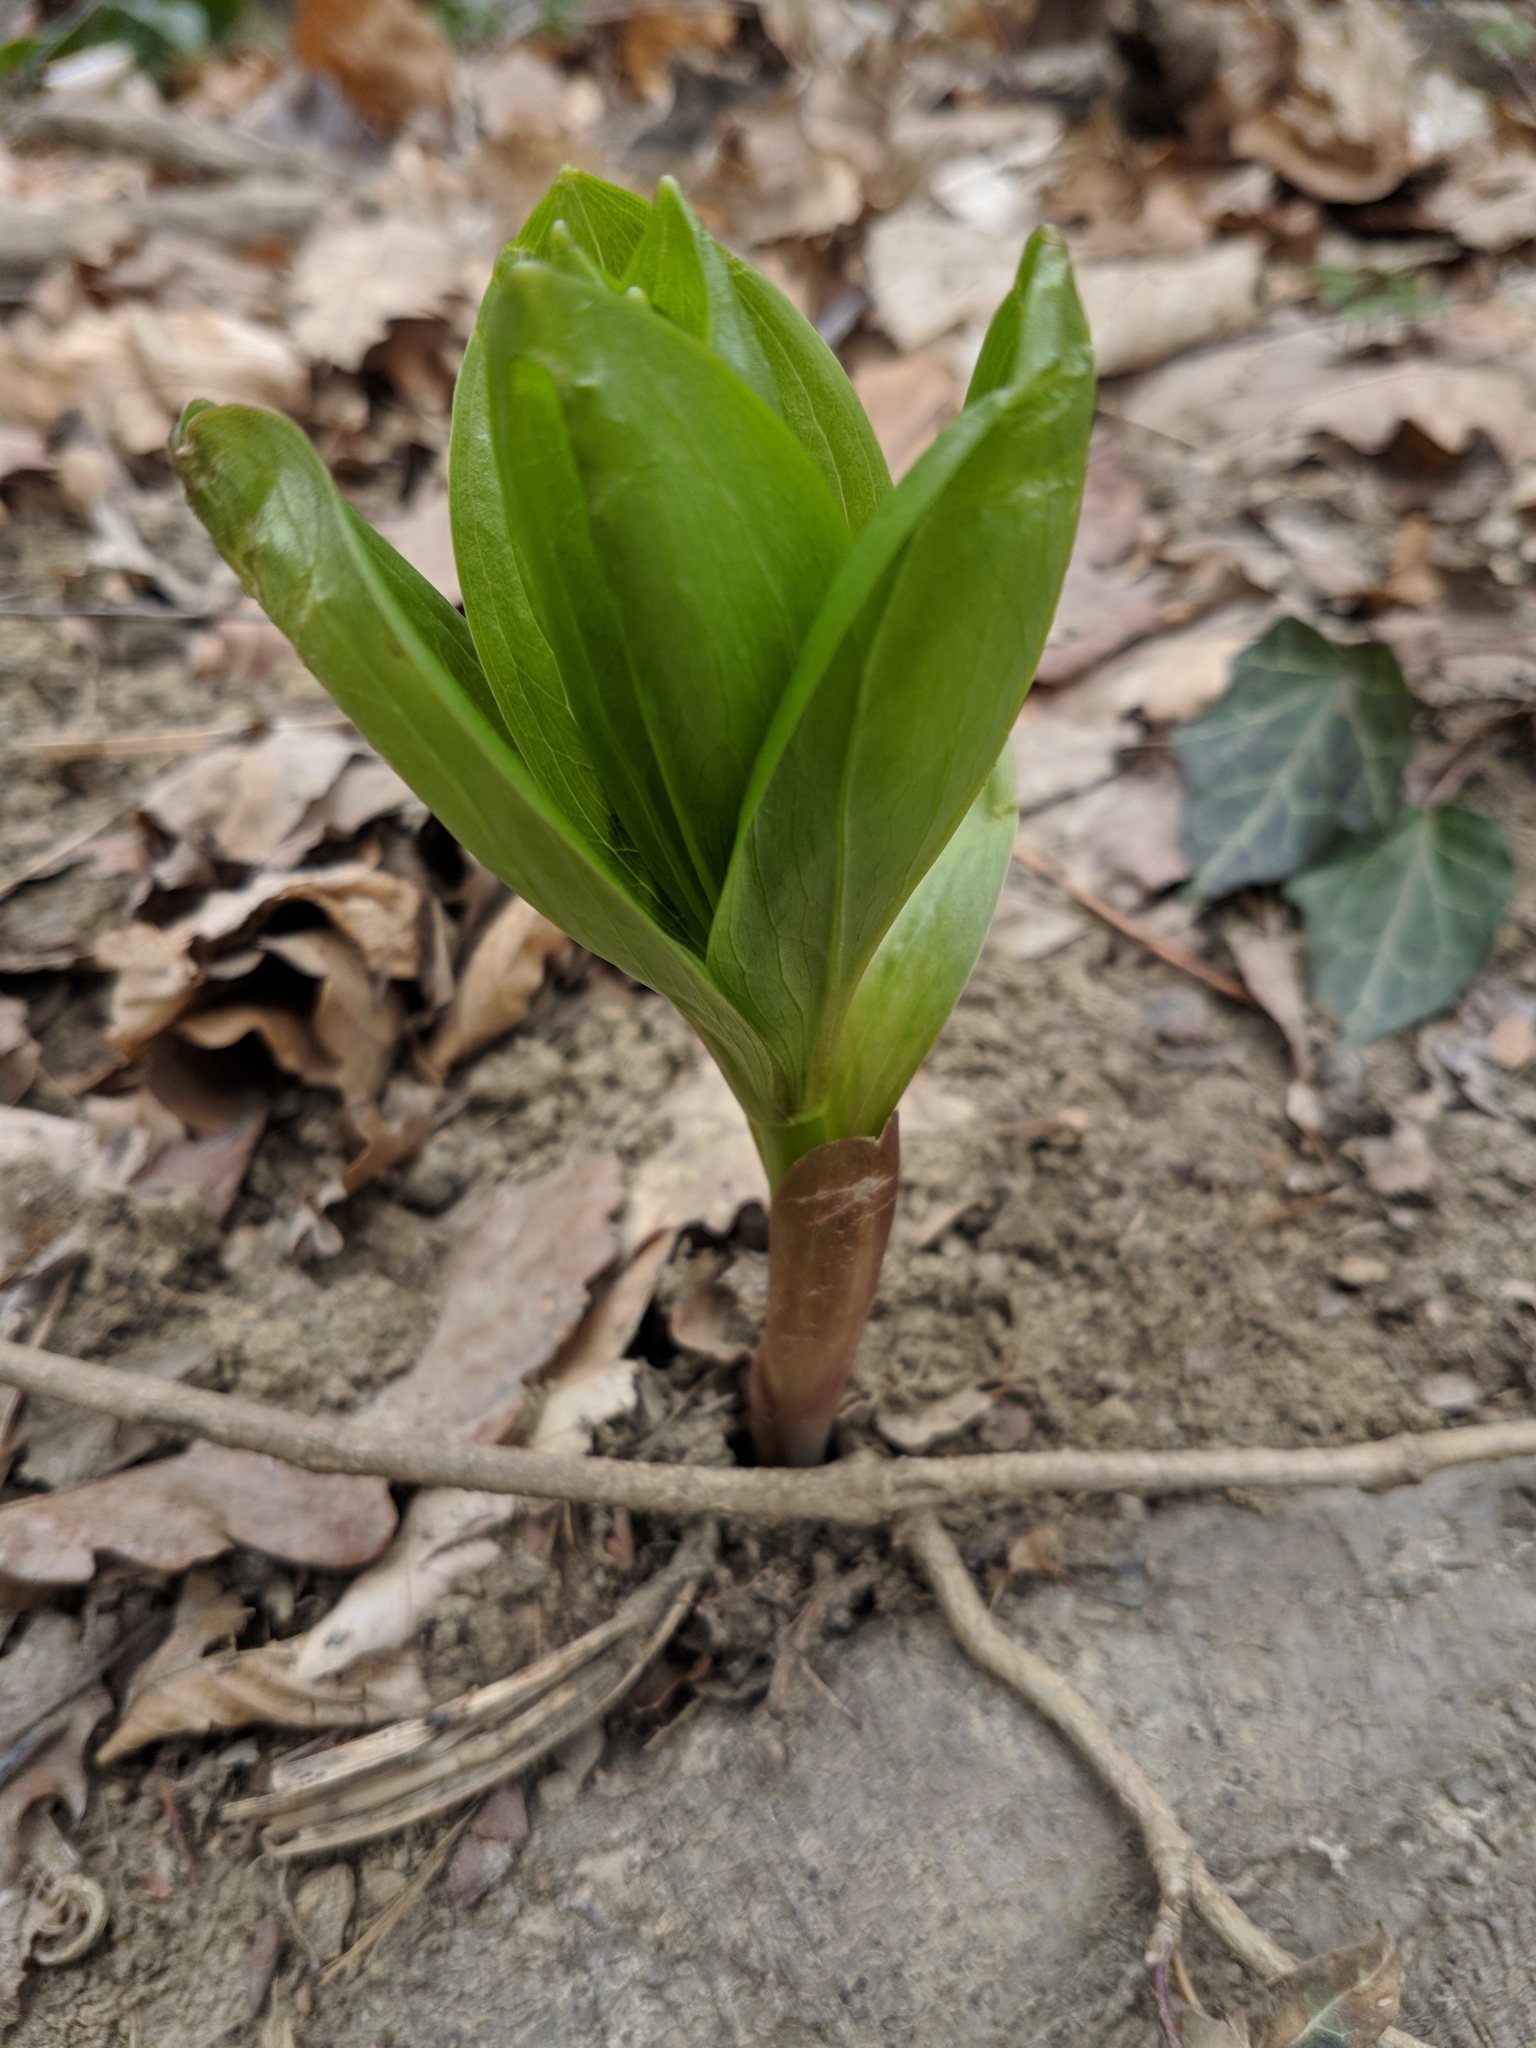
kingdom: Plantae
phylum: Tracheophyta
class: Liliopsida
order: Liliales
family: Liliaceae
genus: Lilium
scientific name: Lilium martagon
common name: Martagon lily
